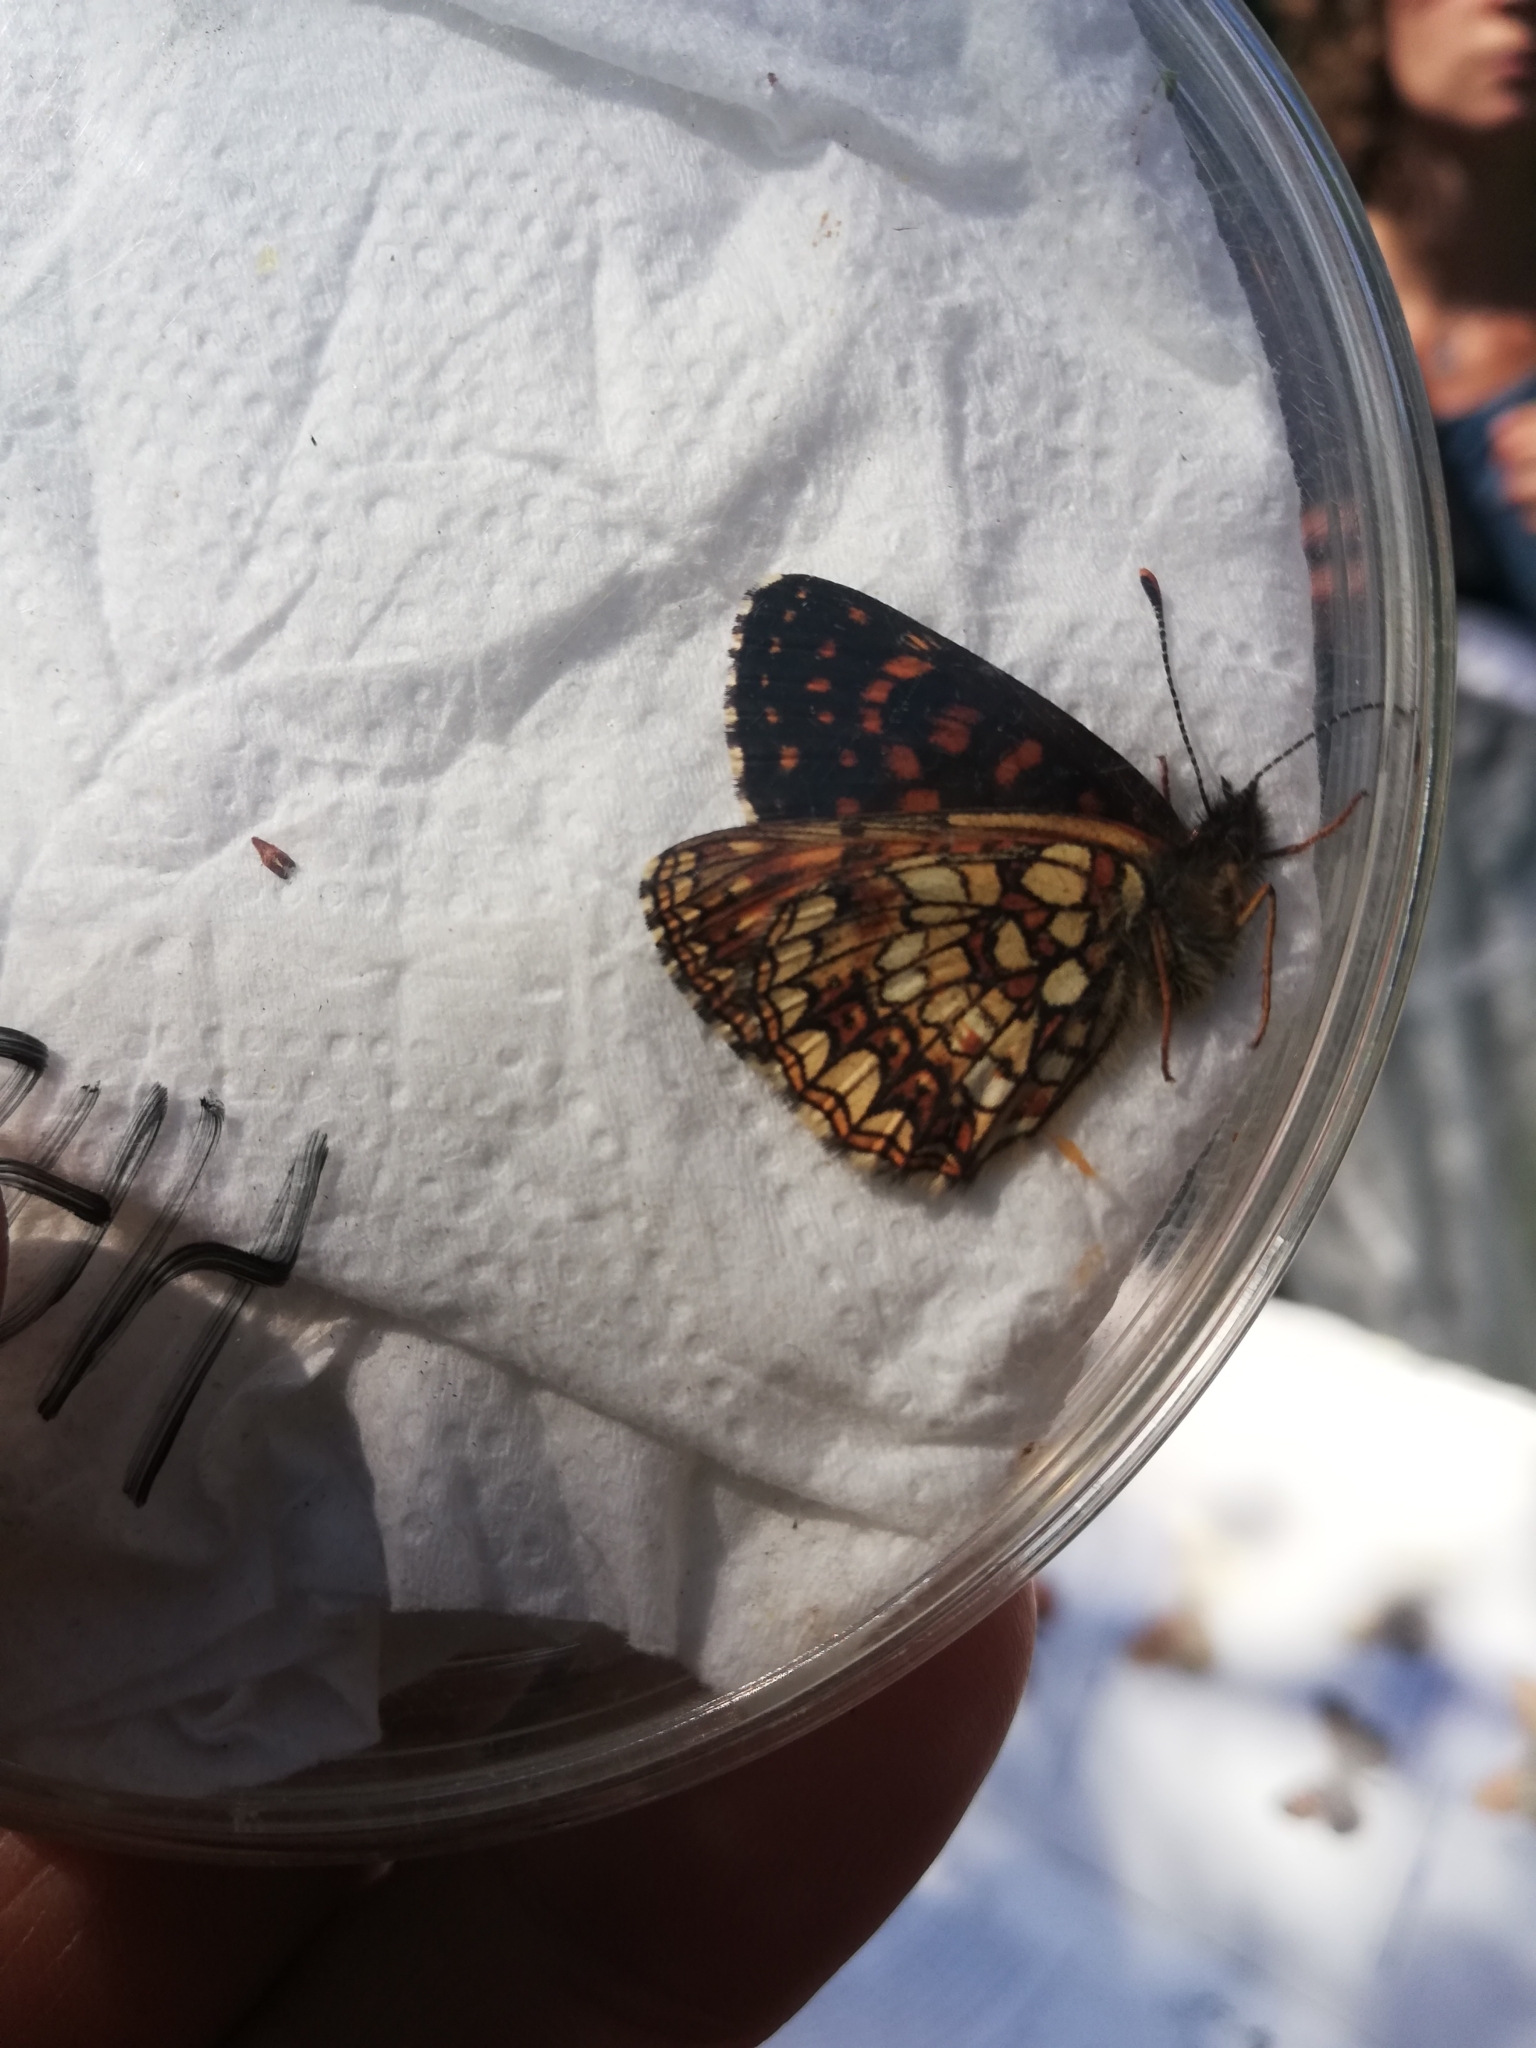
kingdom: Animalia
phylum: Arthropoda
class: Insecta
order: Lepidoptera
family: Nymphalidae
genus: Melitaea
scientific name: Melitaea diamina
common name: False heath fritillary
